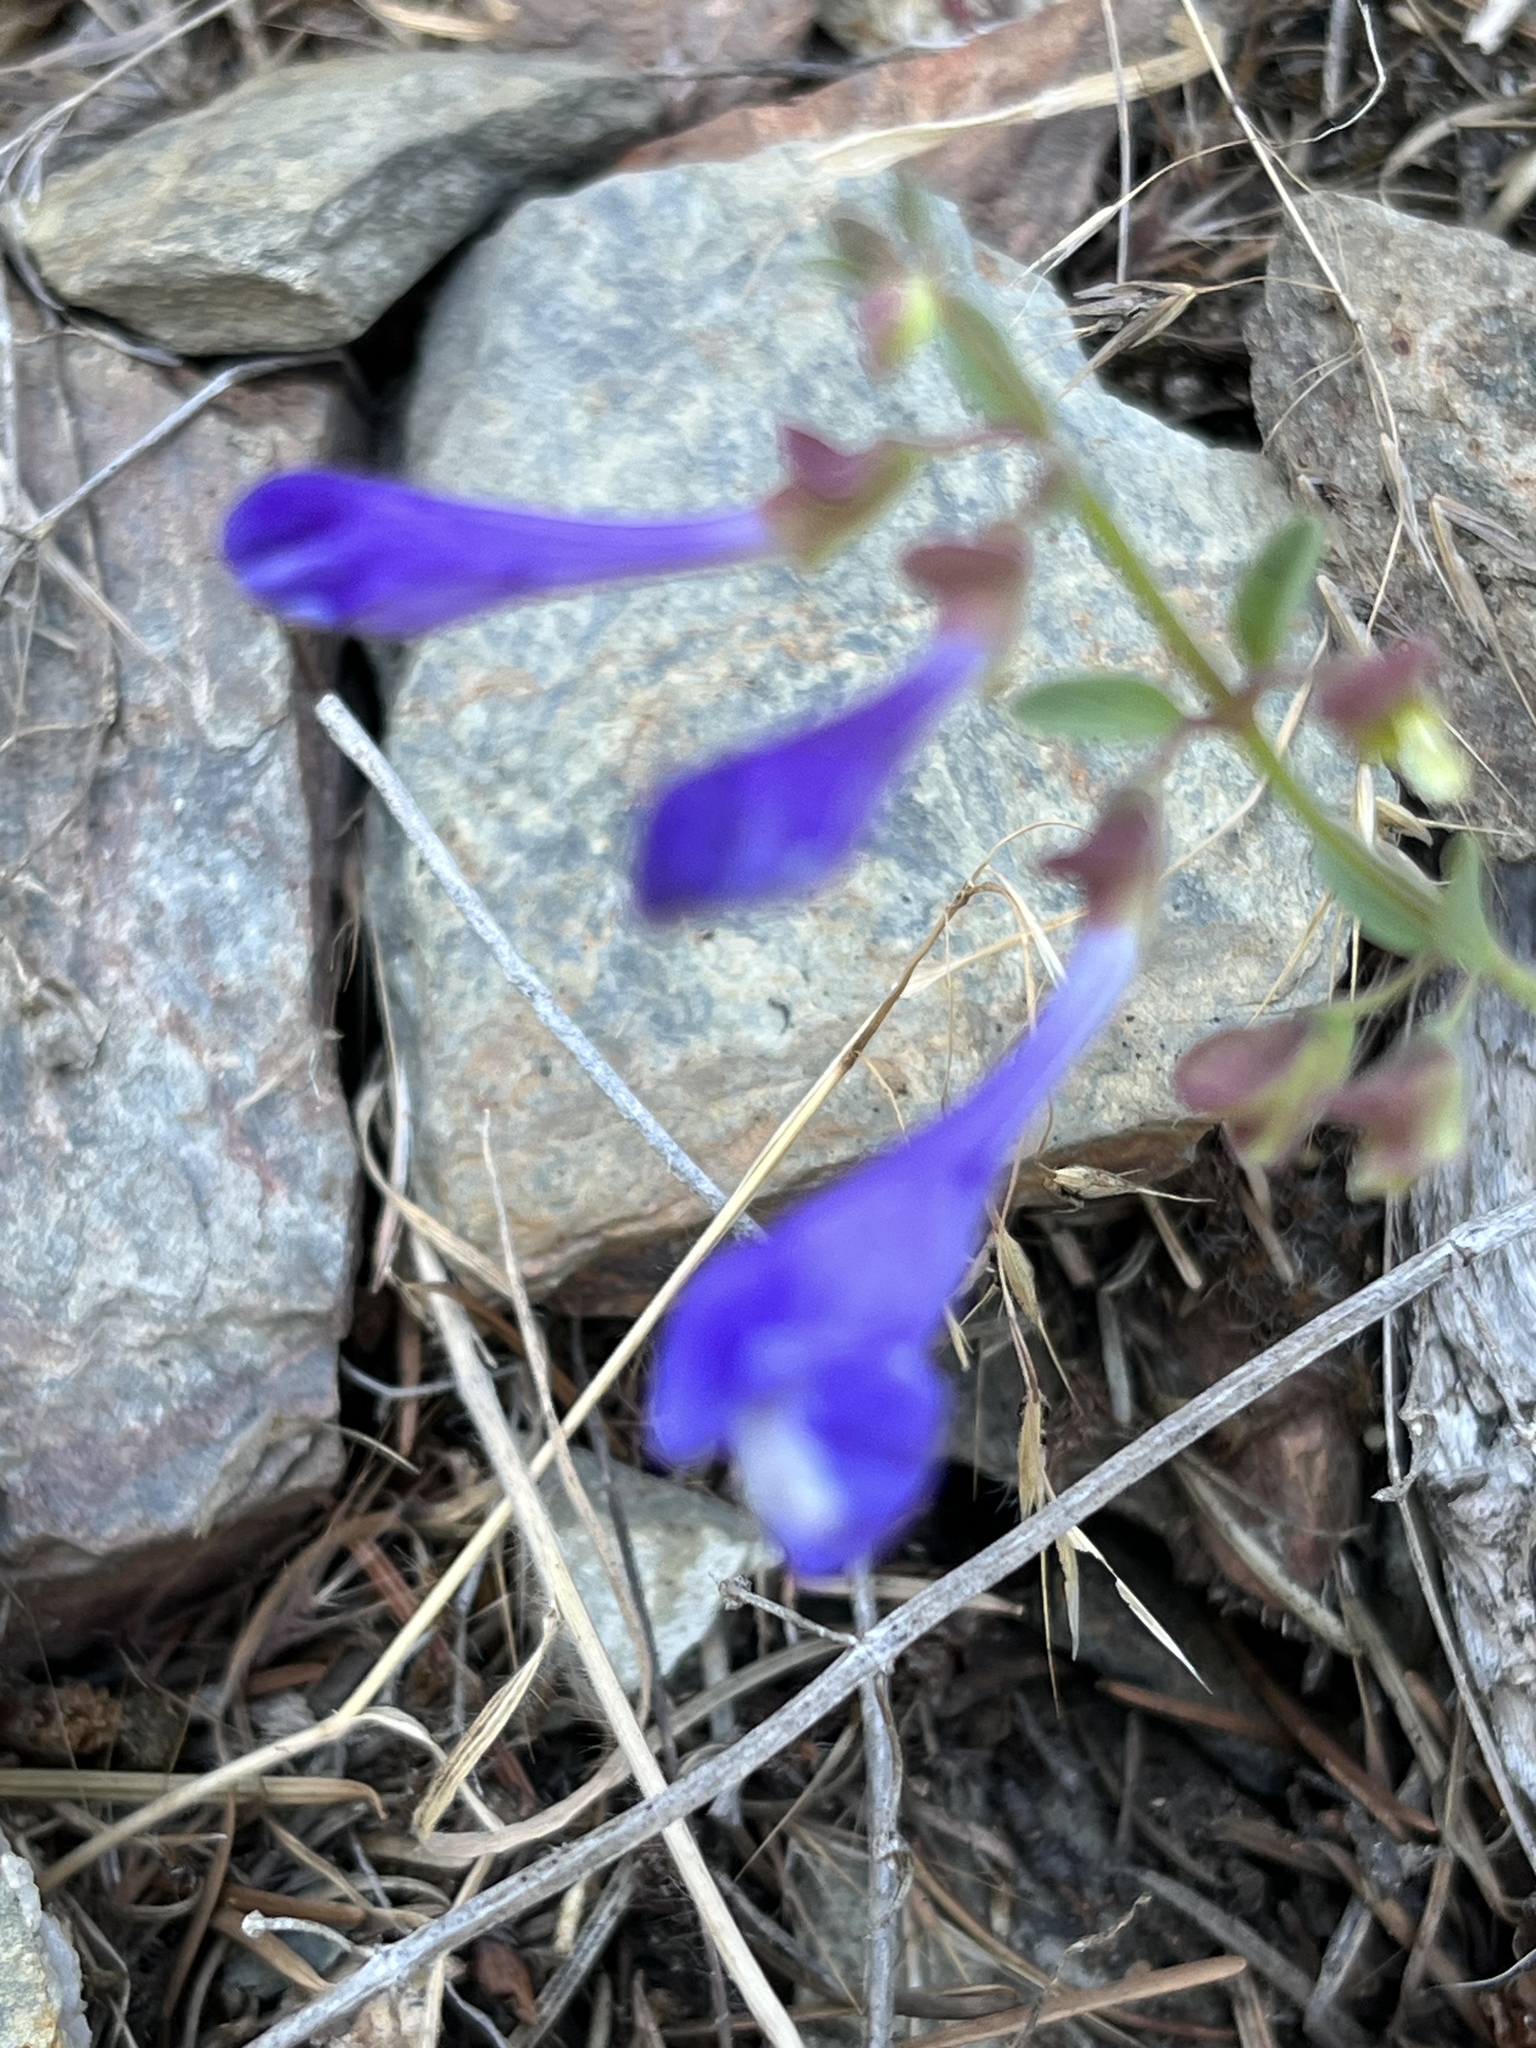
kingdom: Plantae
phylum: Tracheophyta
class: Magnoliopsida
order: Lamiales
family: Lamiaceae
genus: Scutellaria
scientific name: Scutellaria angustifolia
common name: Narrow-leaved skullcap
